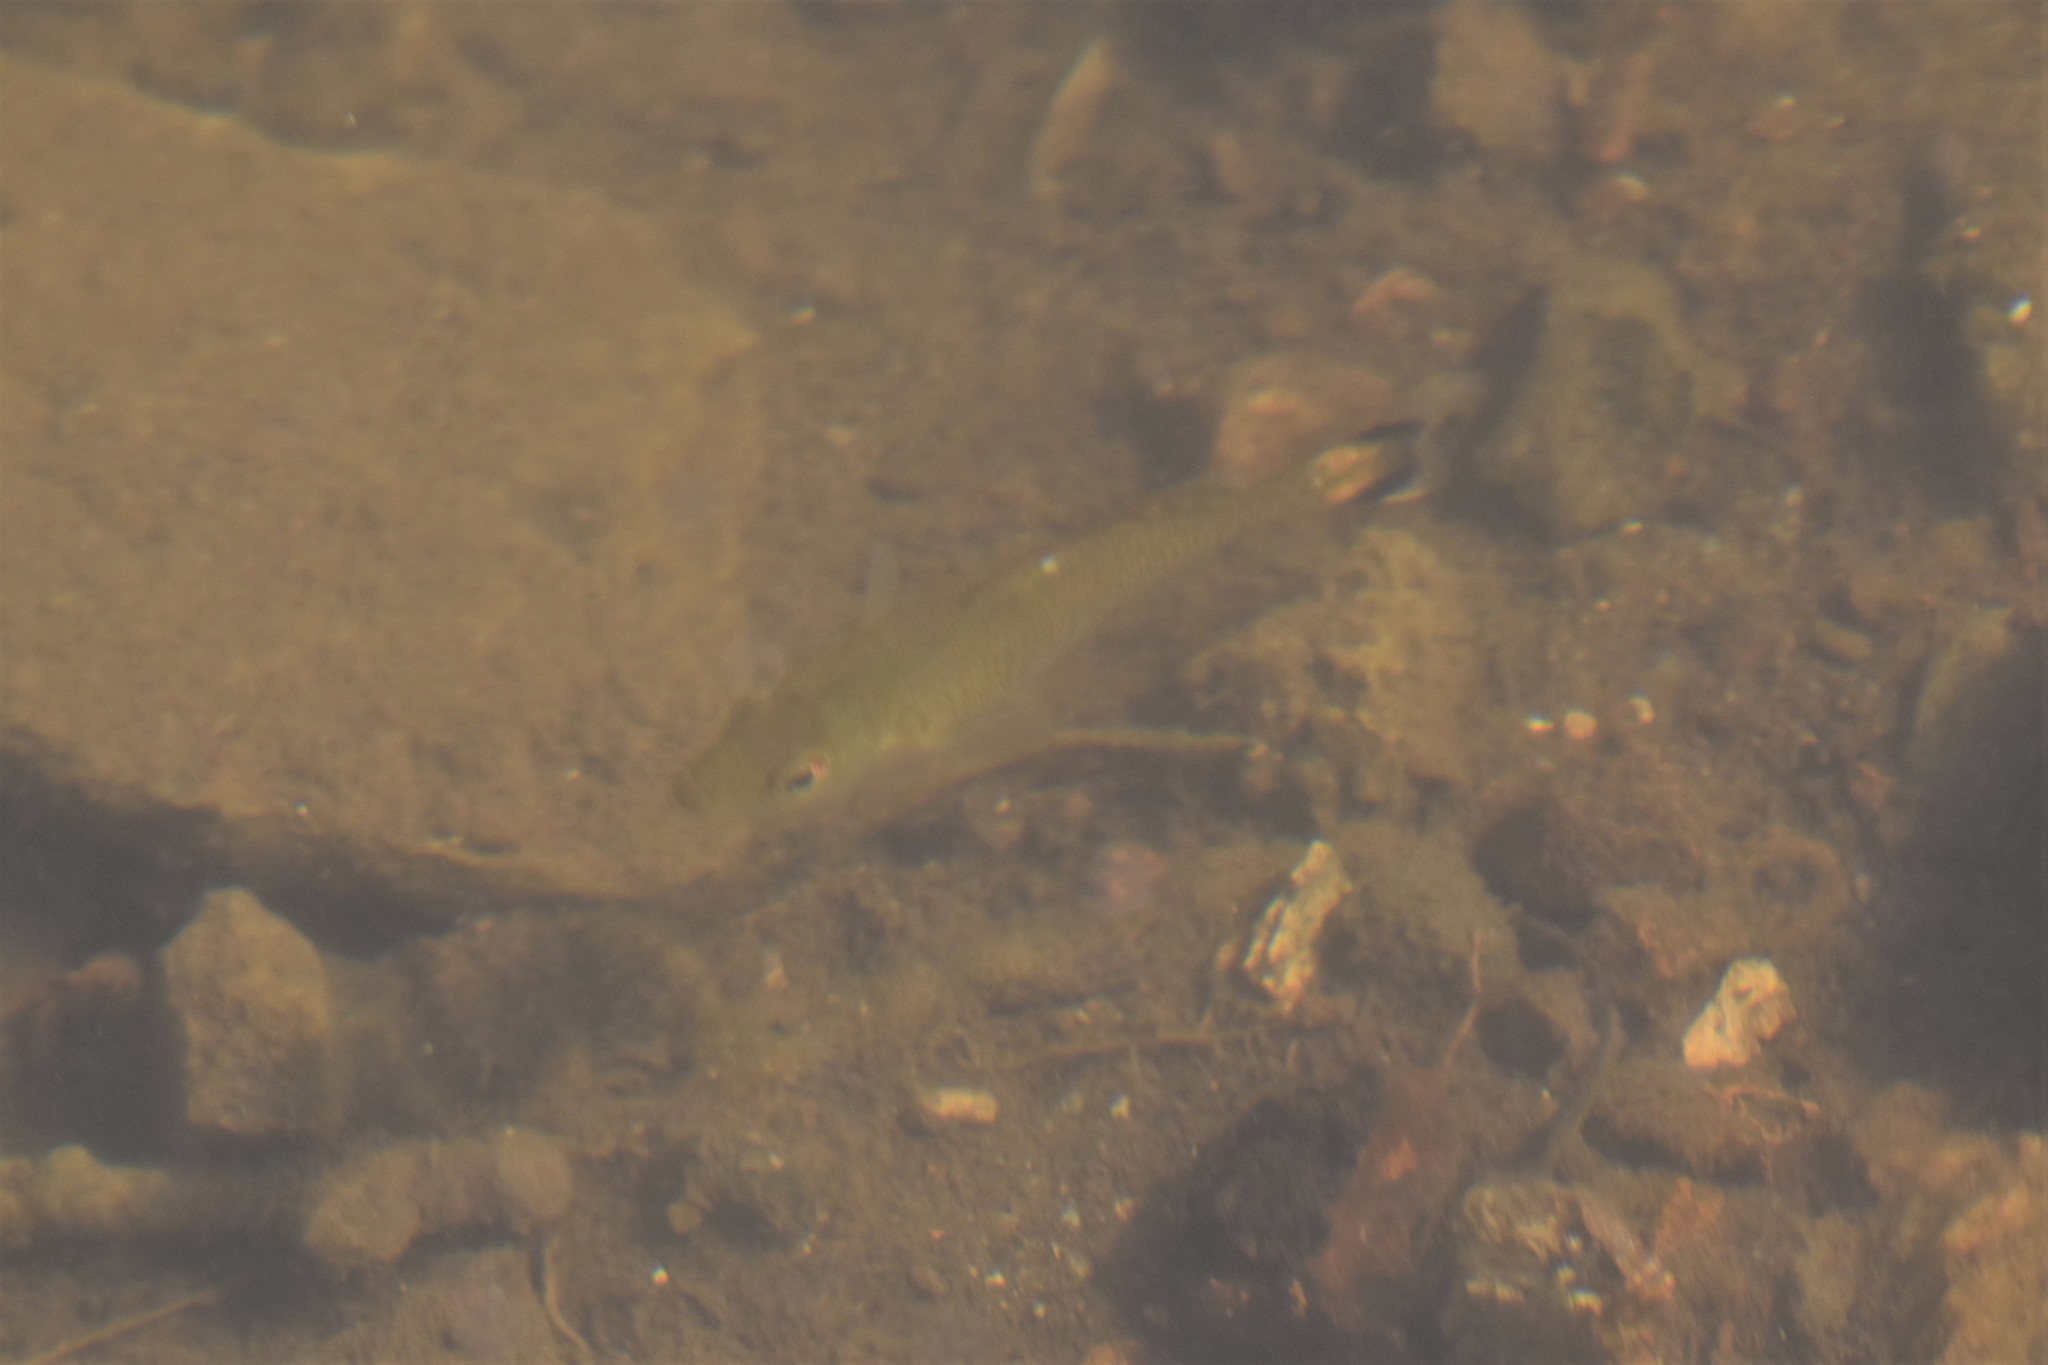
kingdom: Animalia
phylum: Chordata
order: Perciformes
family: Centrarchidae
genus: Micropterus
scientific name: Micropterus dolomieu
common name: Smallmouth bass
